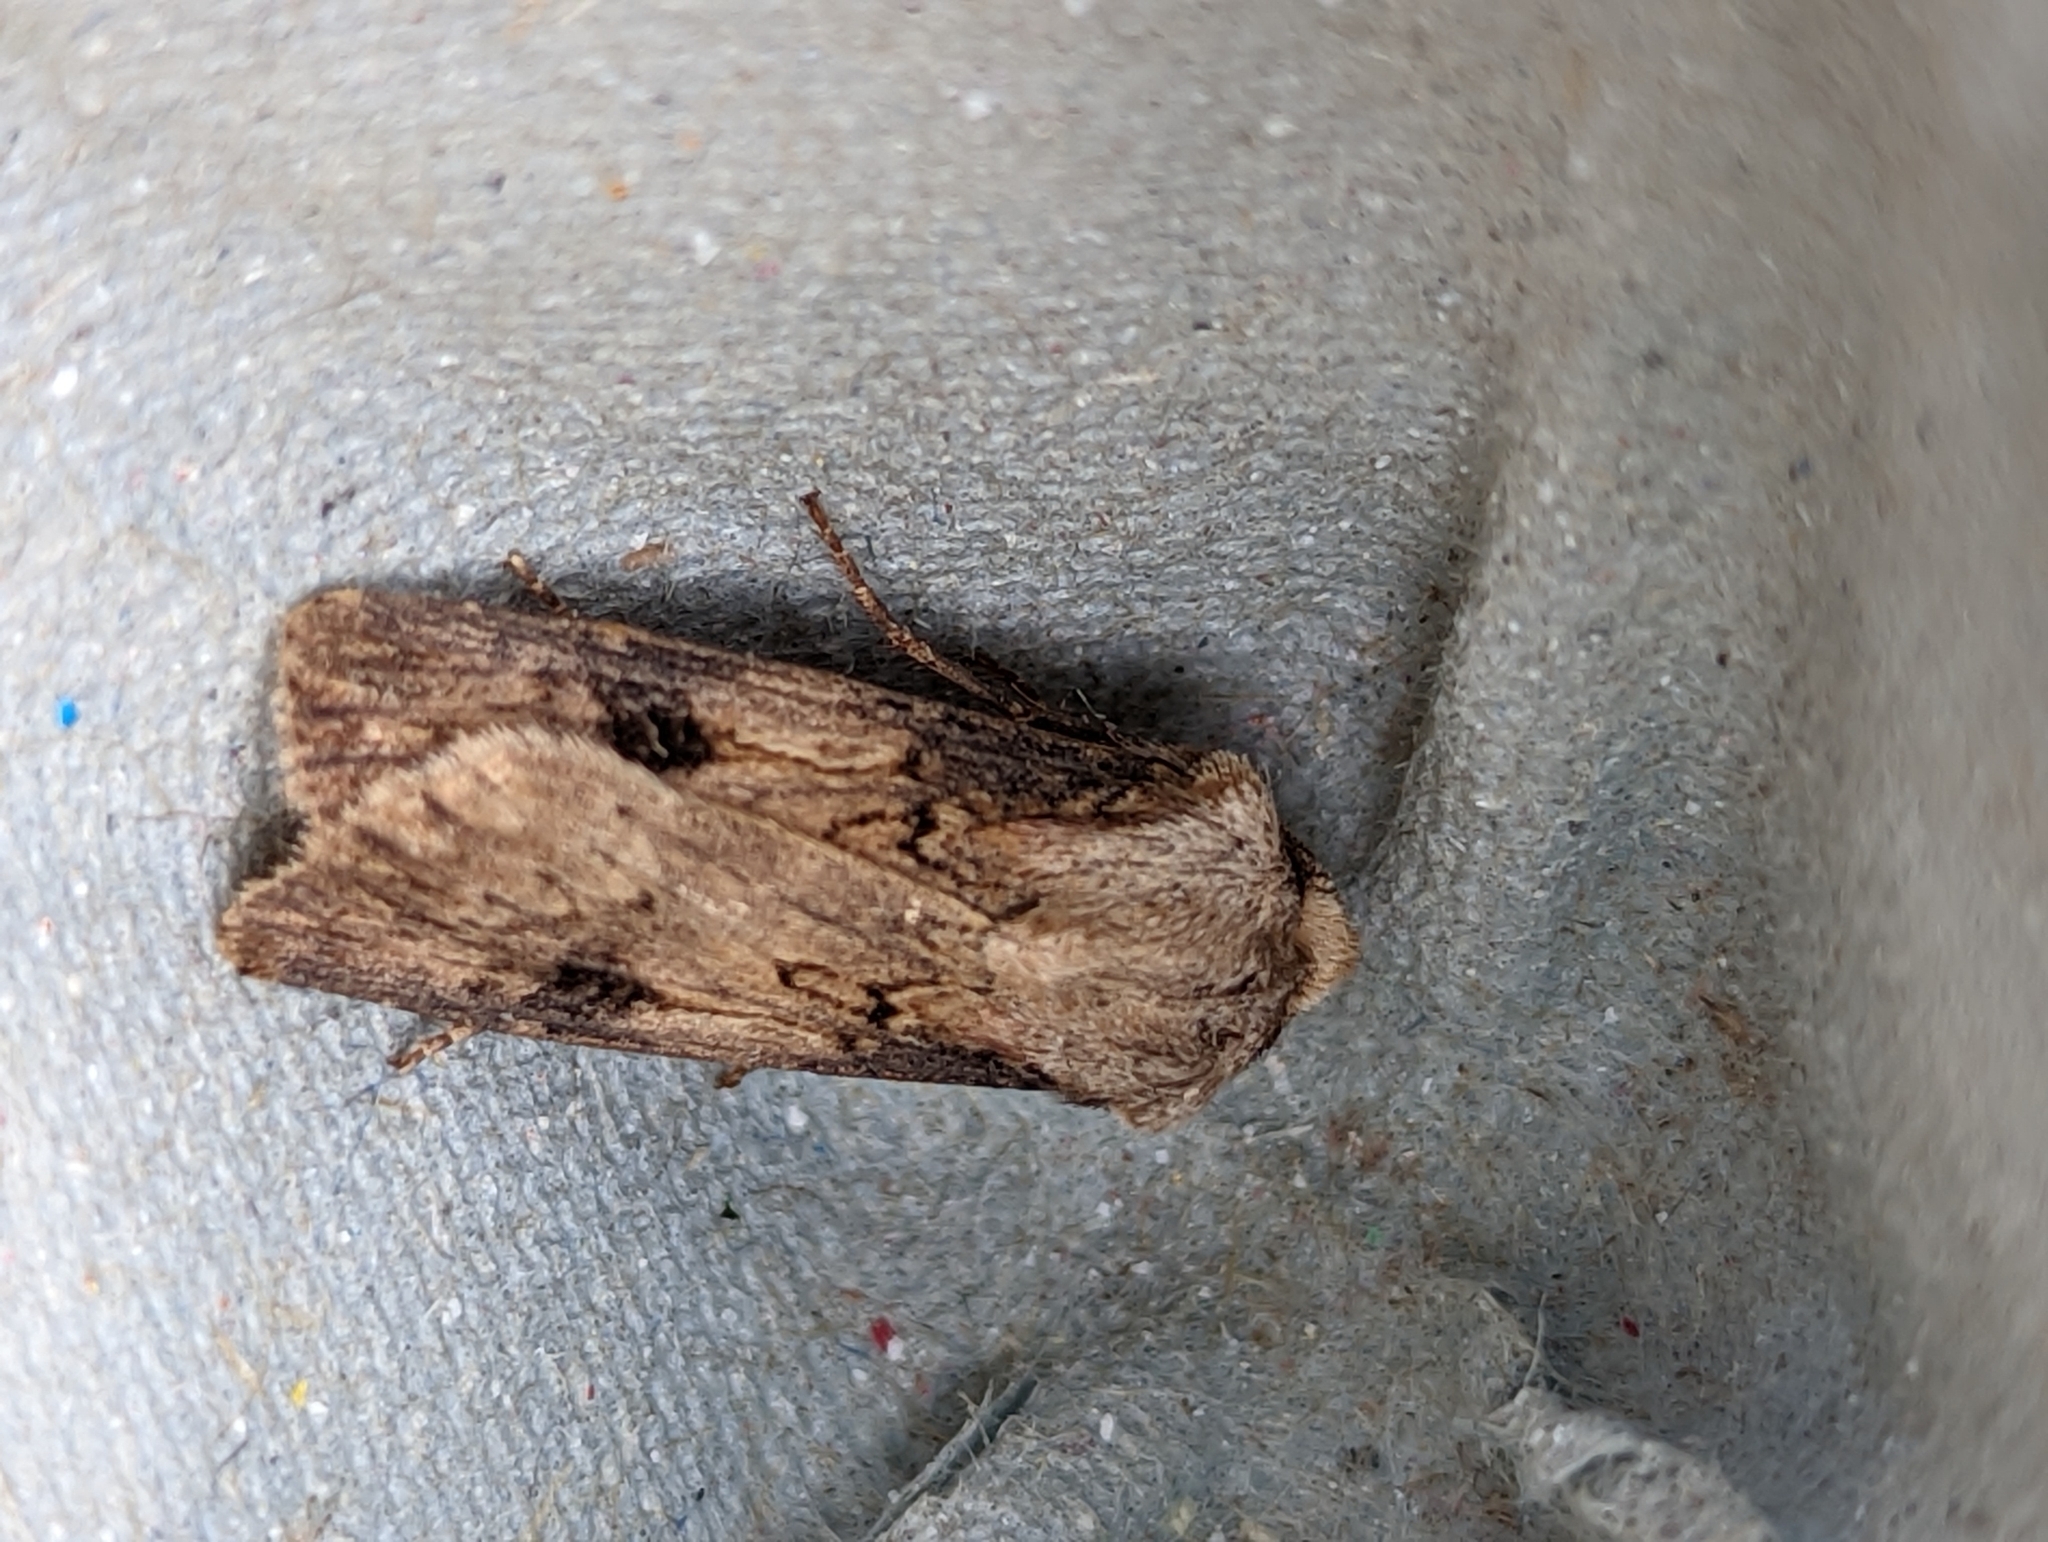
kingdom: Animalia
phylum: Arthropoda
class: Insecta
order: Lepidoptera
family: Noctuidae
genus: Agrotis
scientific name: Agrotis puta
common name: Shuttle-shaped dart
